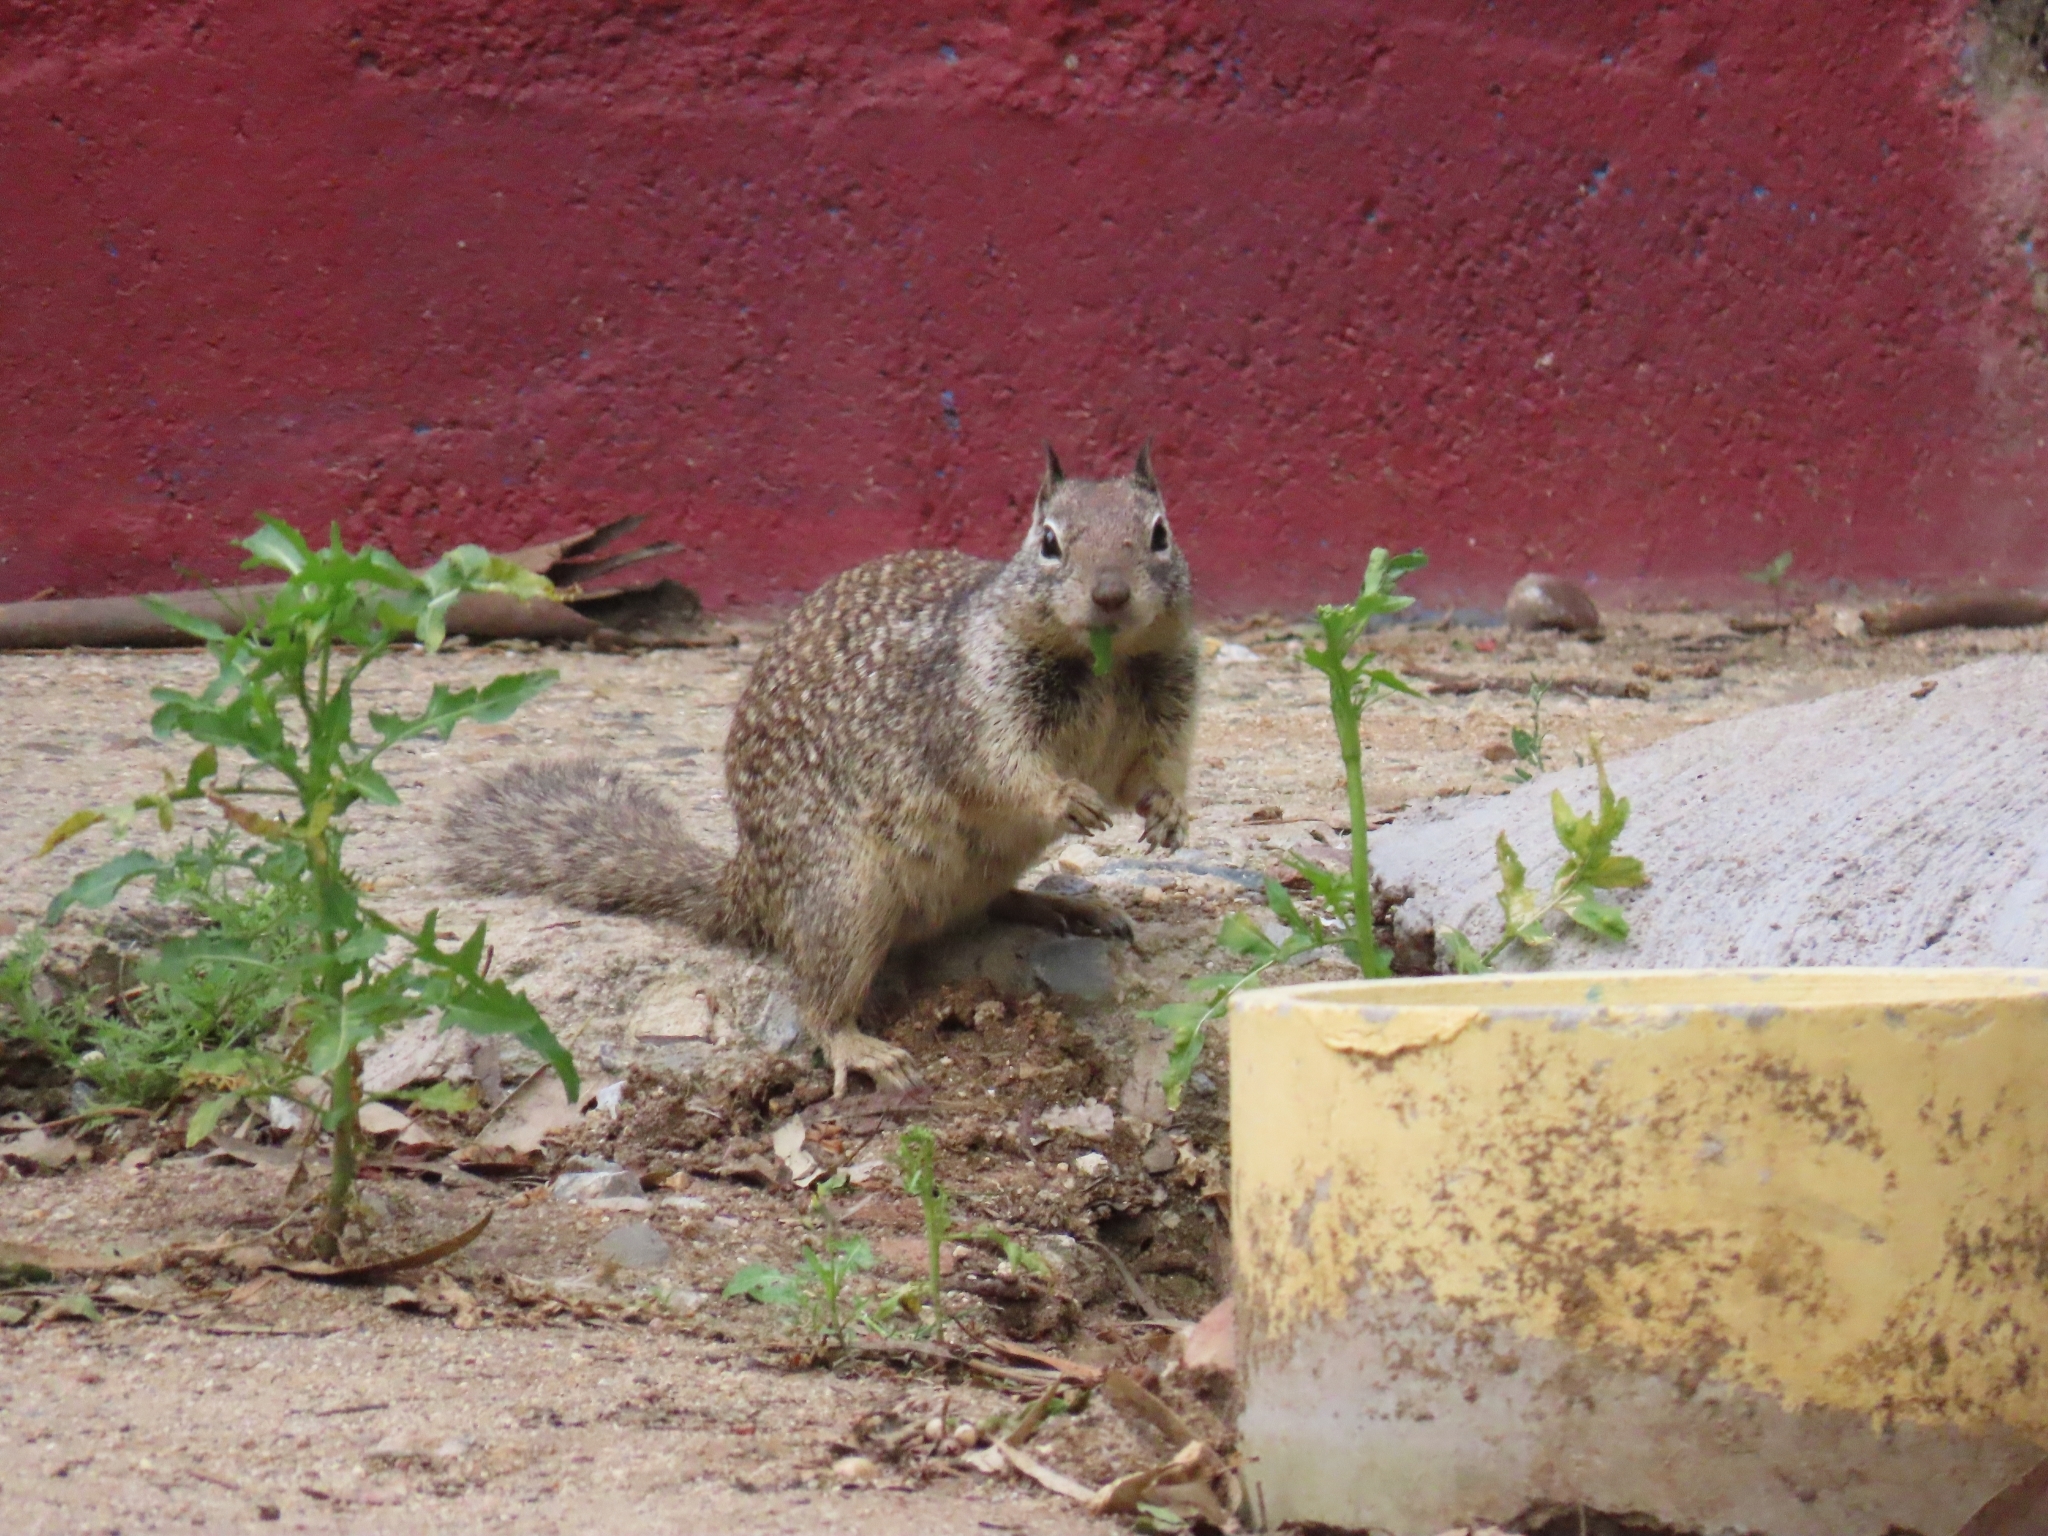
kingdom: Animalia
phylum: Chordata
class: Mammalia
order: Rodentia
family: Sciuridae
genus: Otospermophilus
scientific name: Otospermophilus beecheyi
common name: California ground squirrel
